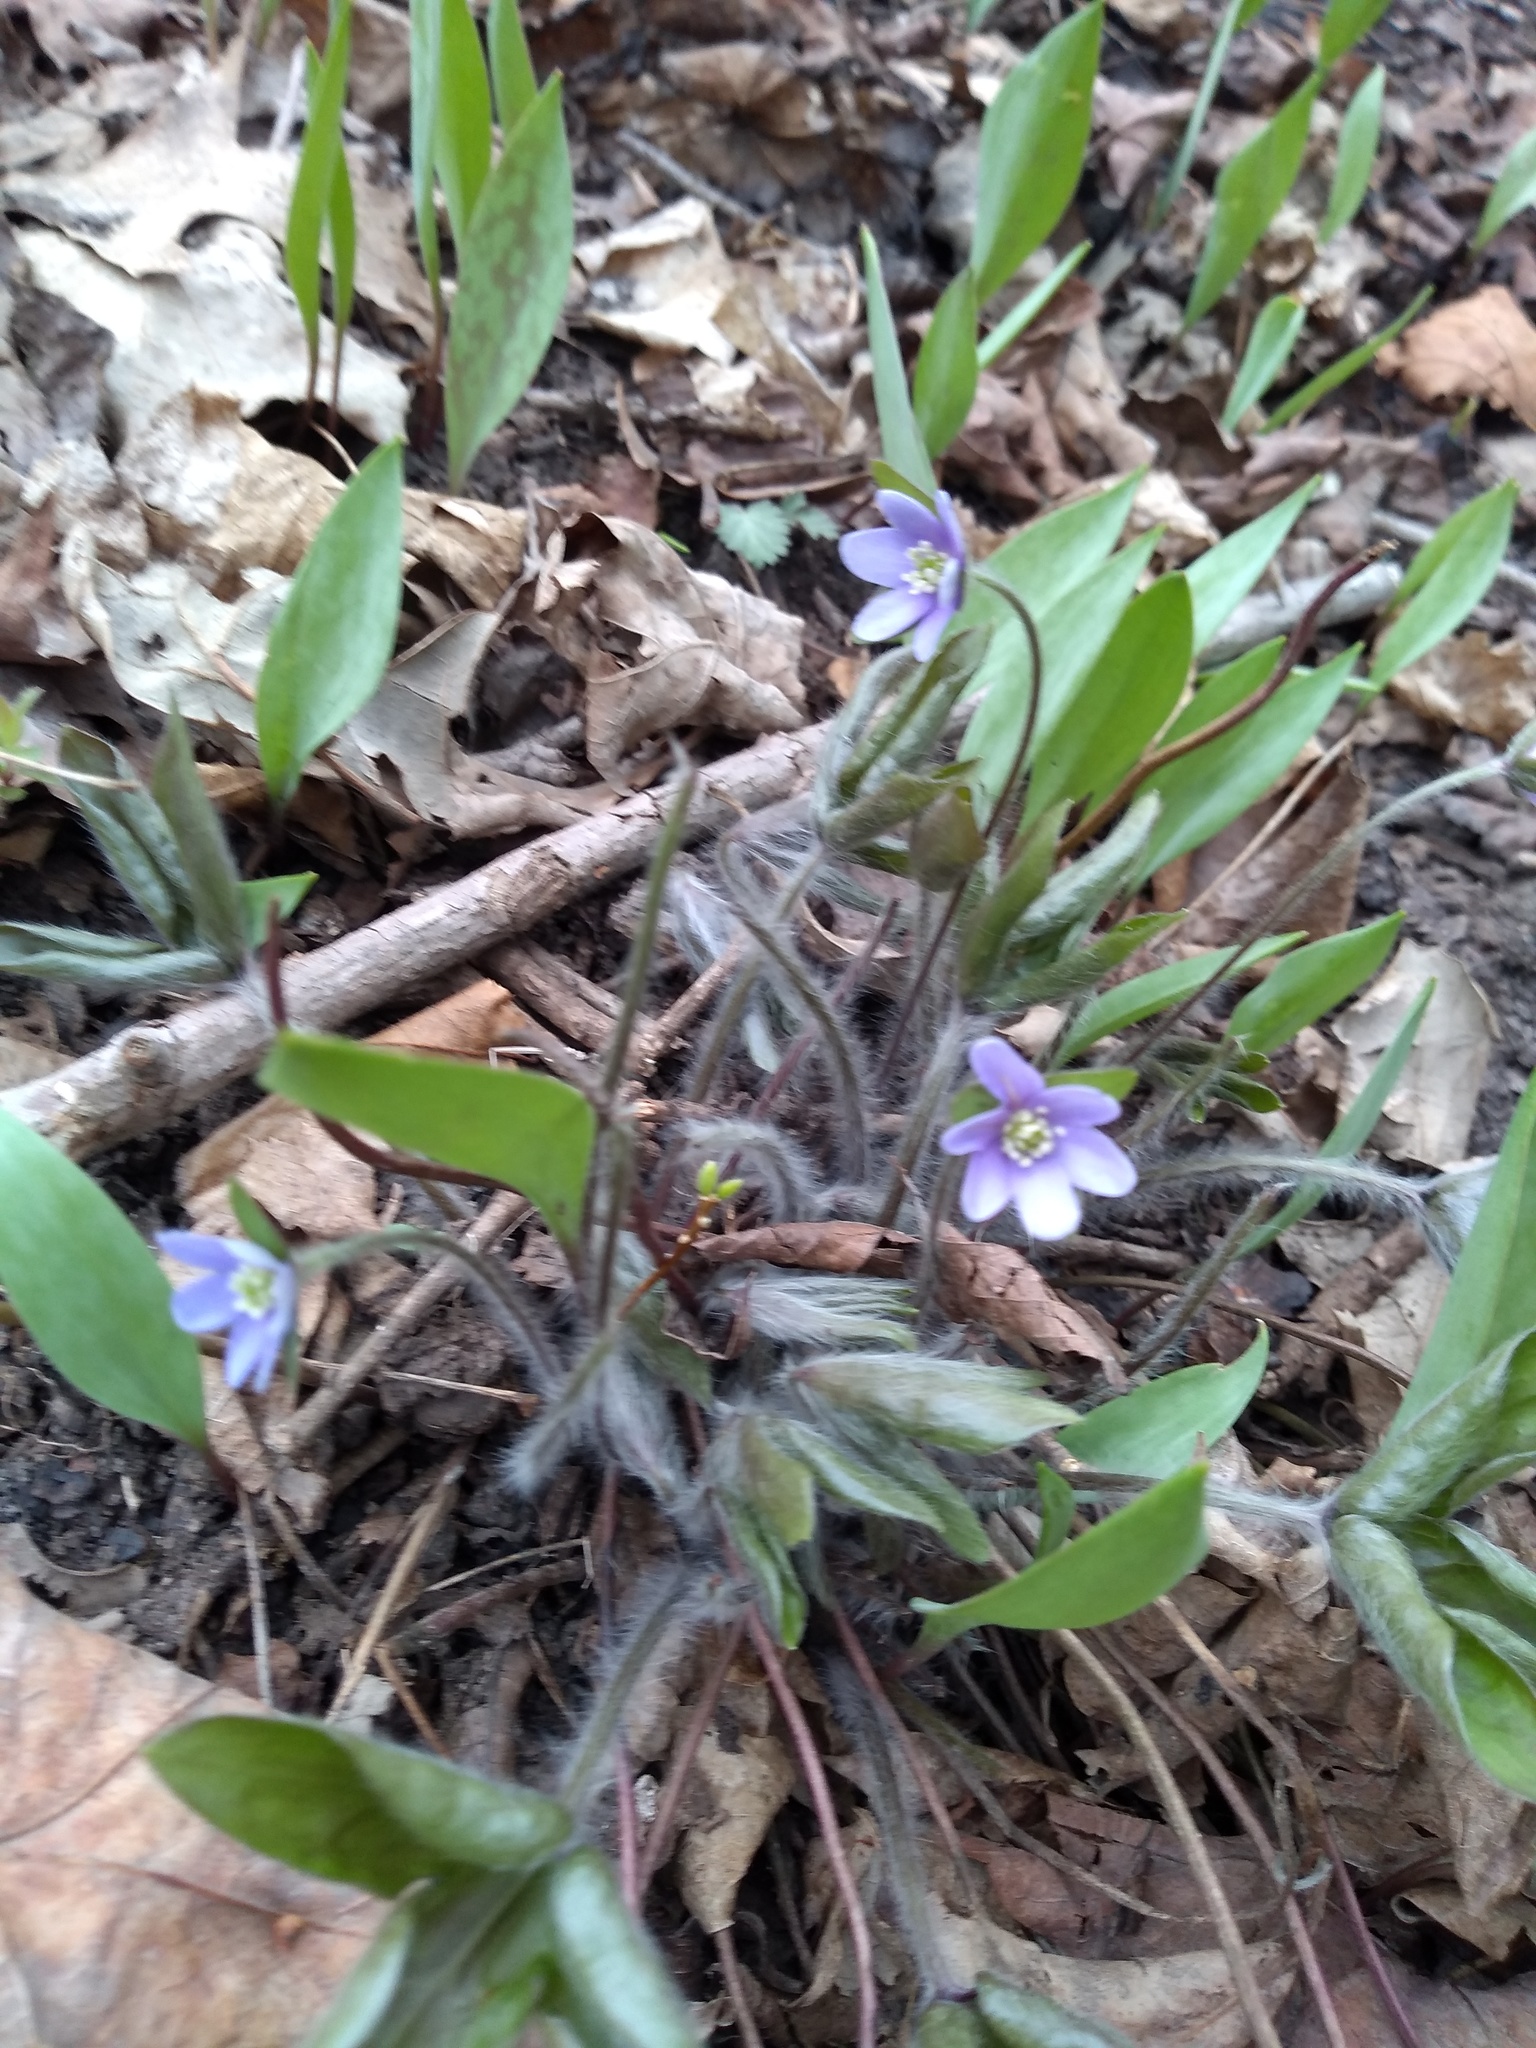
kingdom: Plantae
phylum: Tracheophyta
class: Magnoliopsida
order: Ranunculales
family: Ranunculaceae
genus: Hepatica
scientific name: Hepatica acutiloba
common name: Sharp-lobed hepatica
